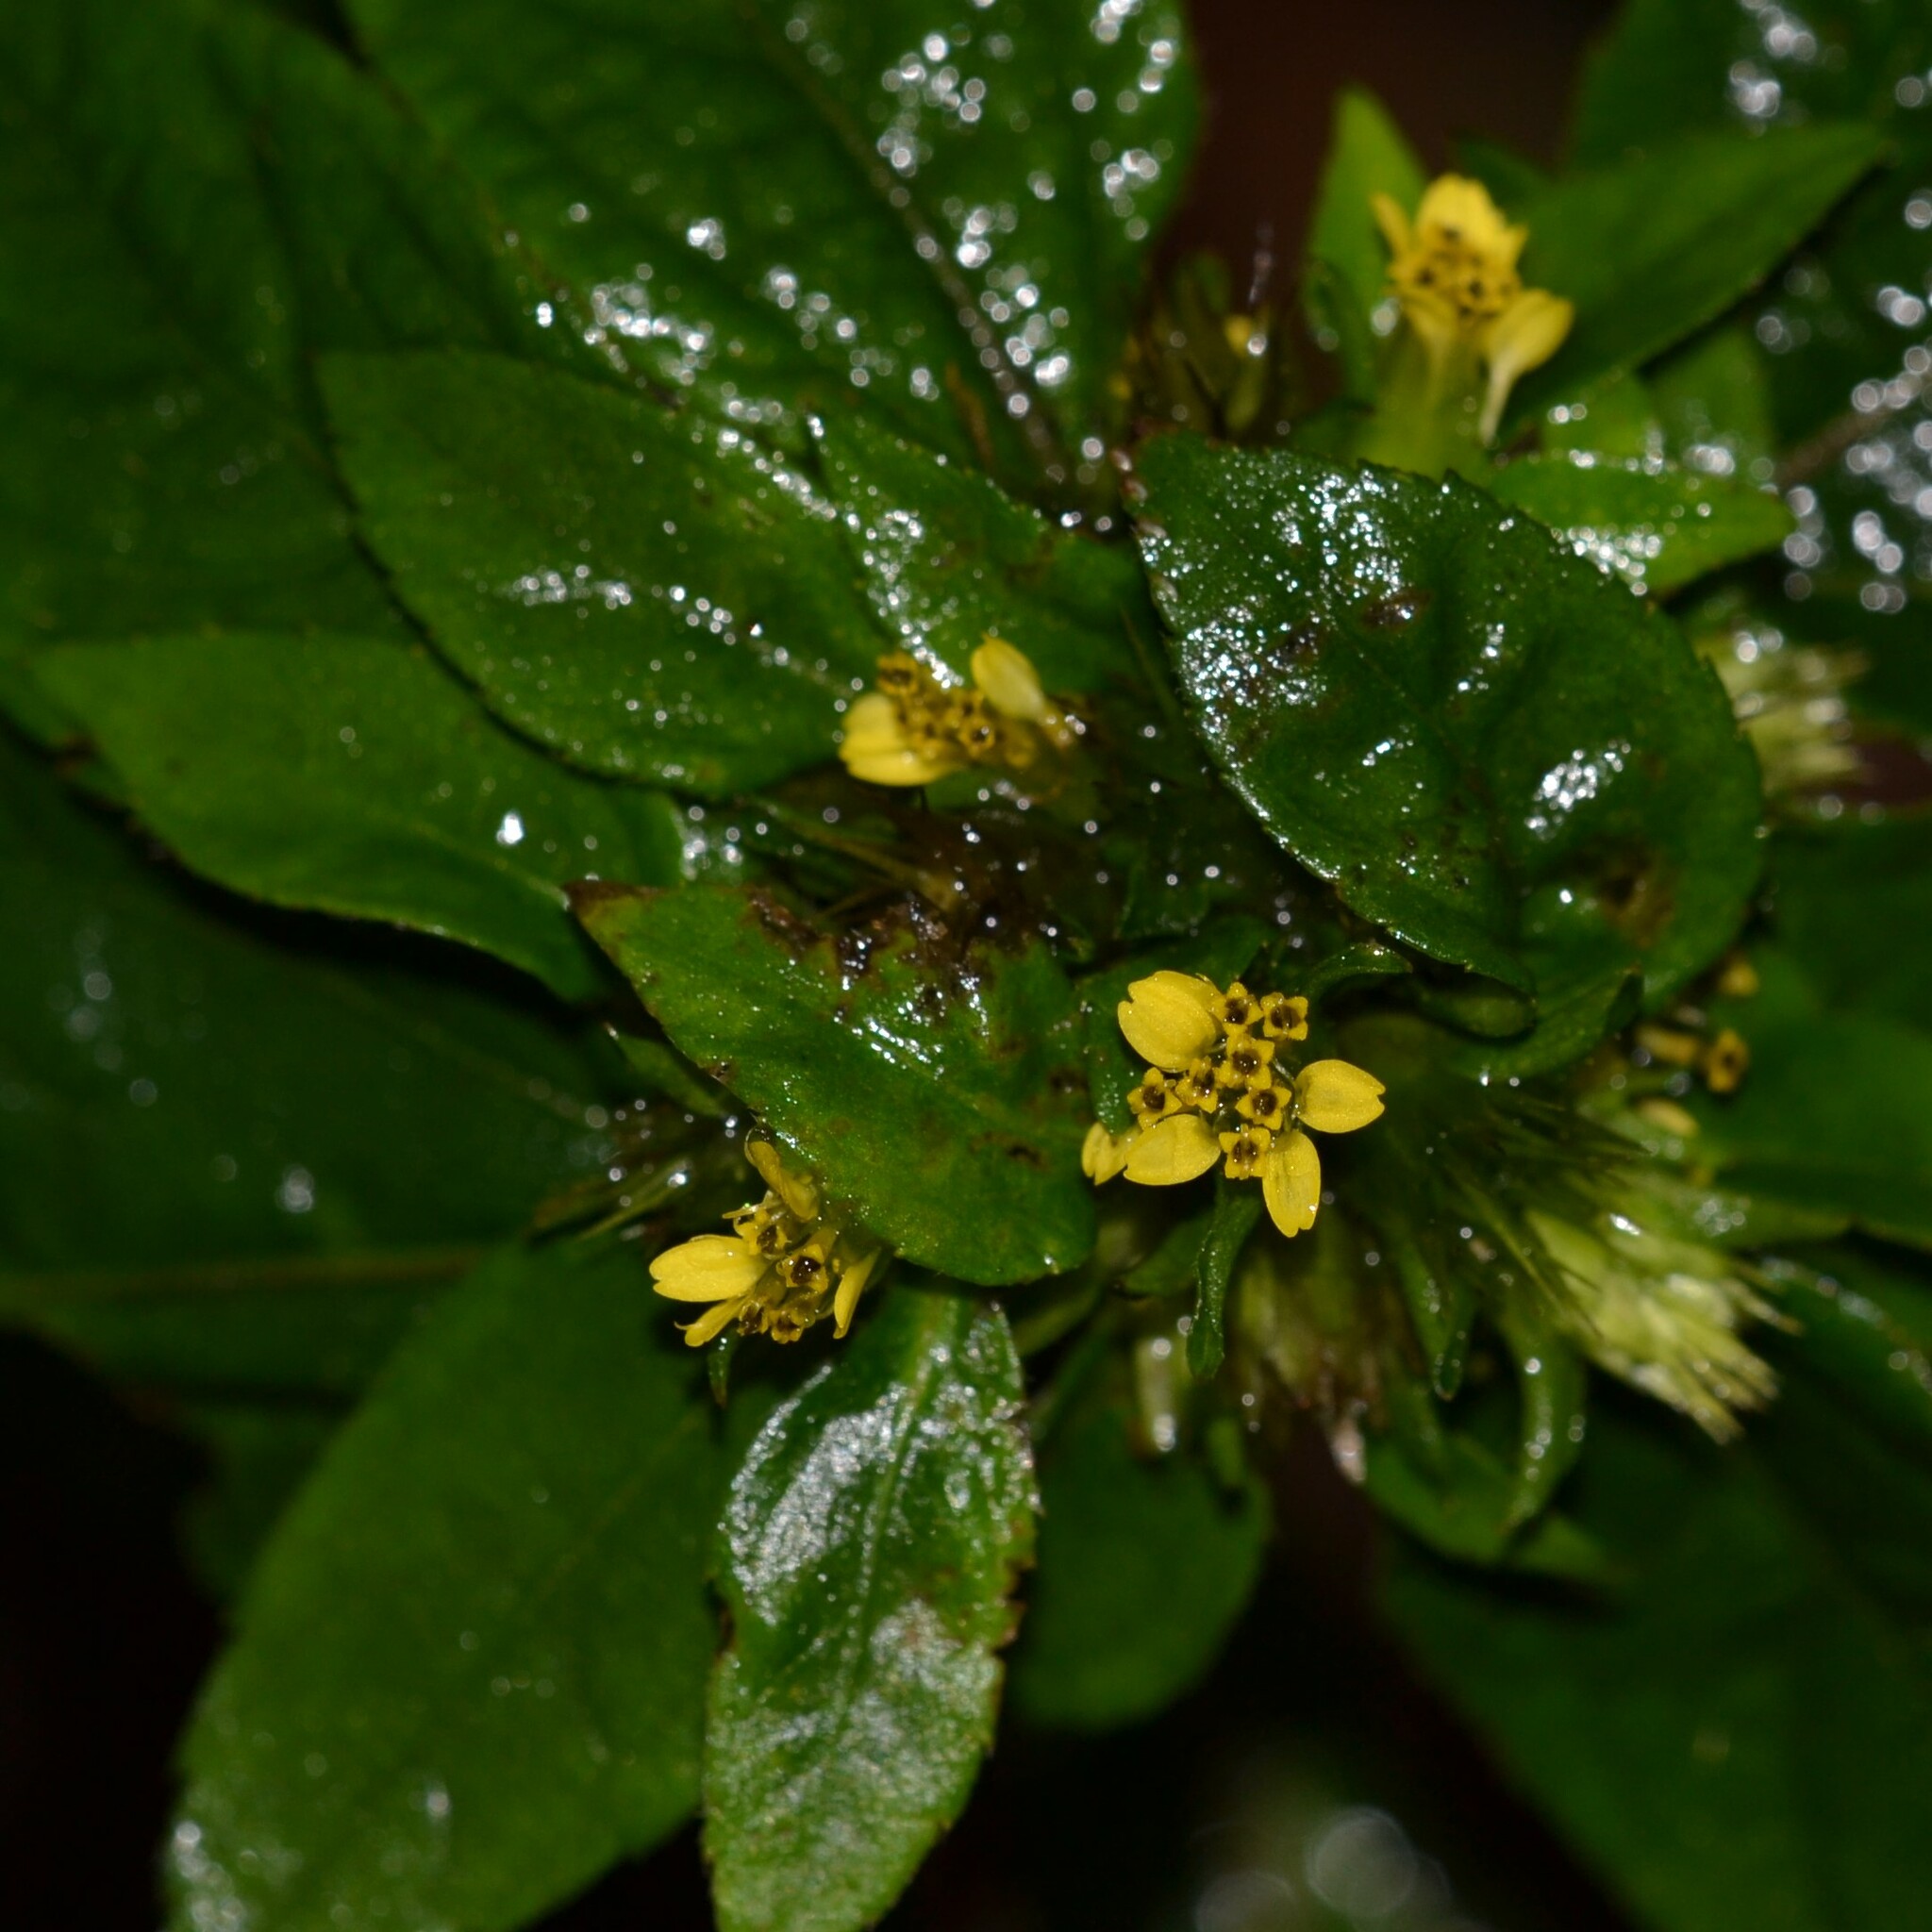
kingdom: Plantae
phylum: Tracheophyta
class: Magnoliopsida
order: Asterales
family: Asteraceae
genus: Synedrella
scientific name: Synedrella nodiflora
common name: Nodeweed
